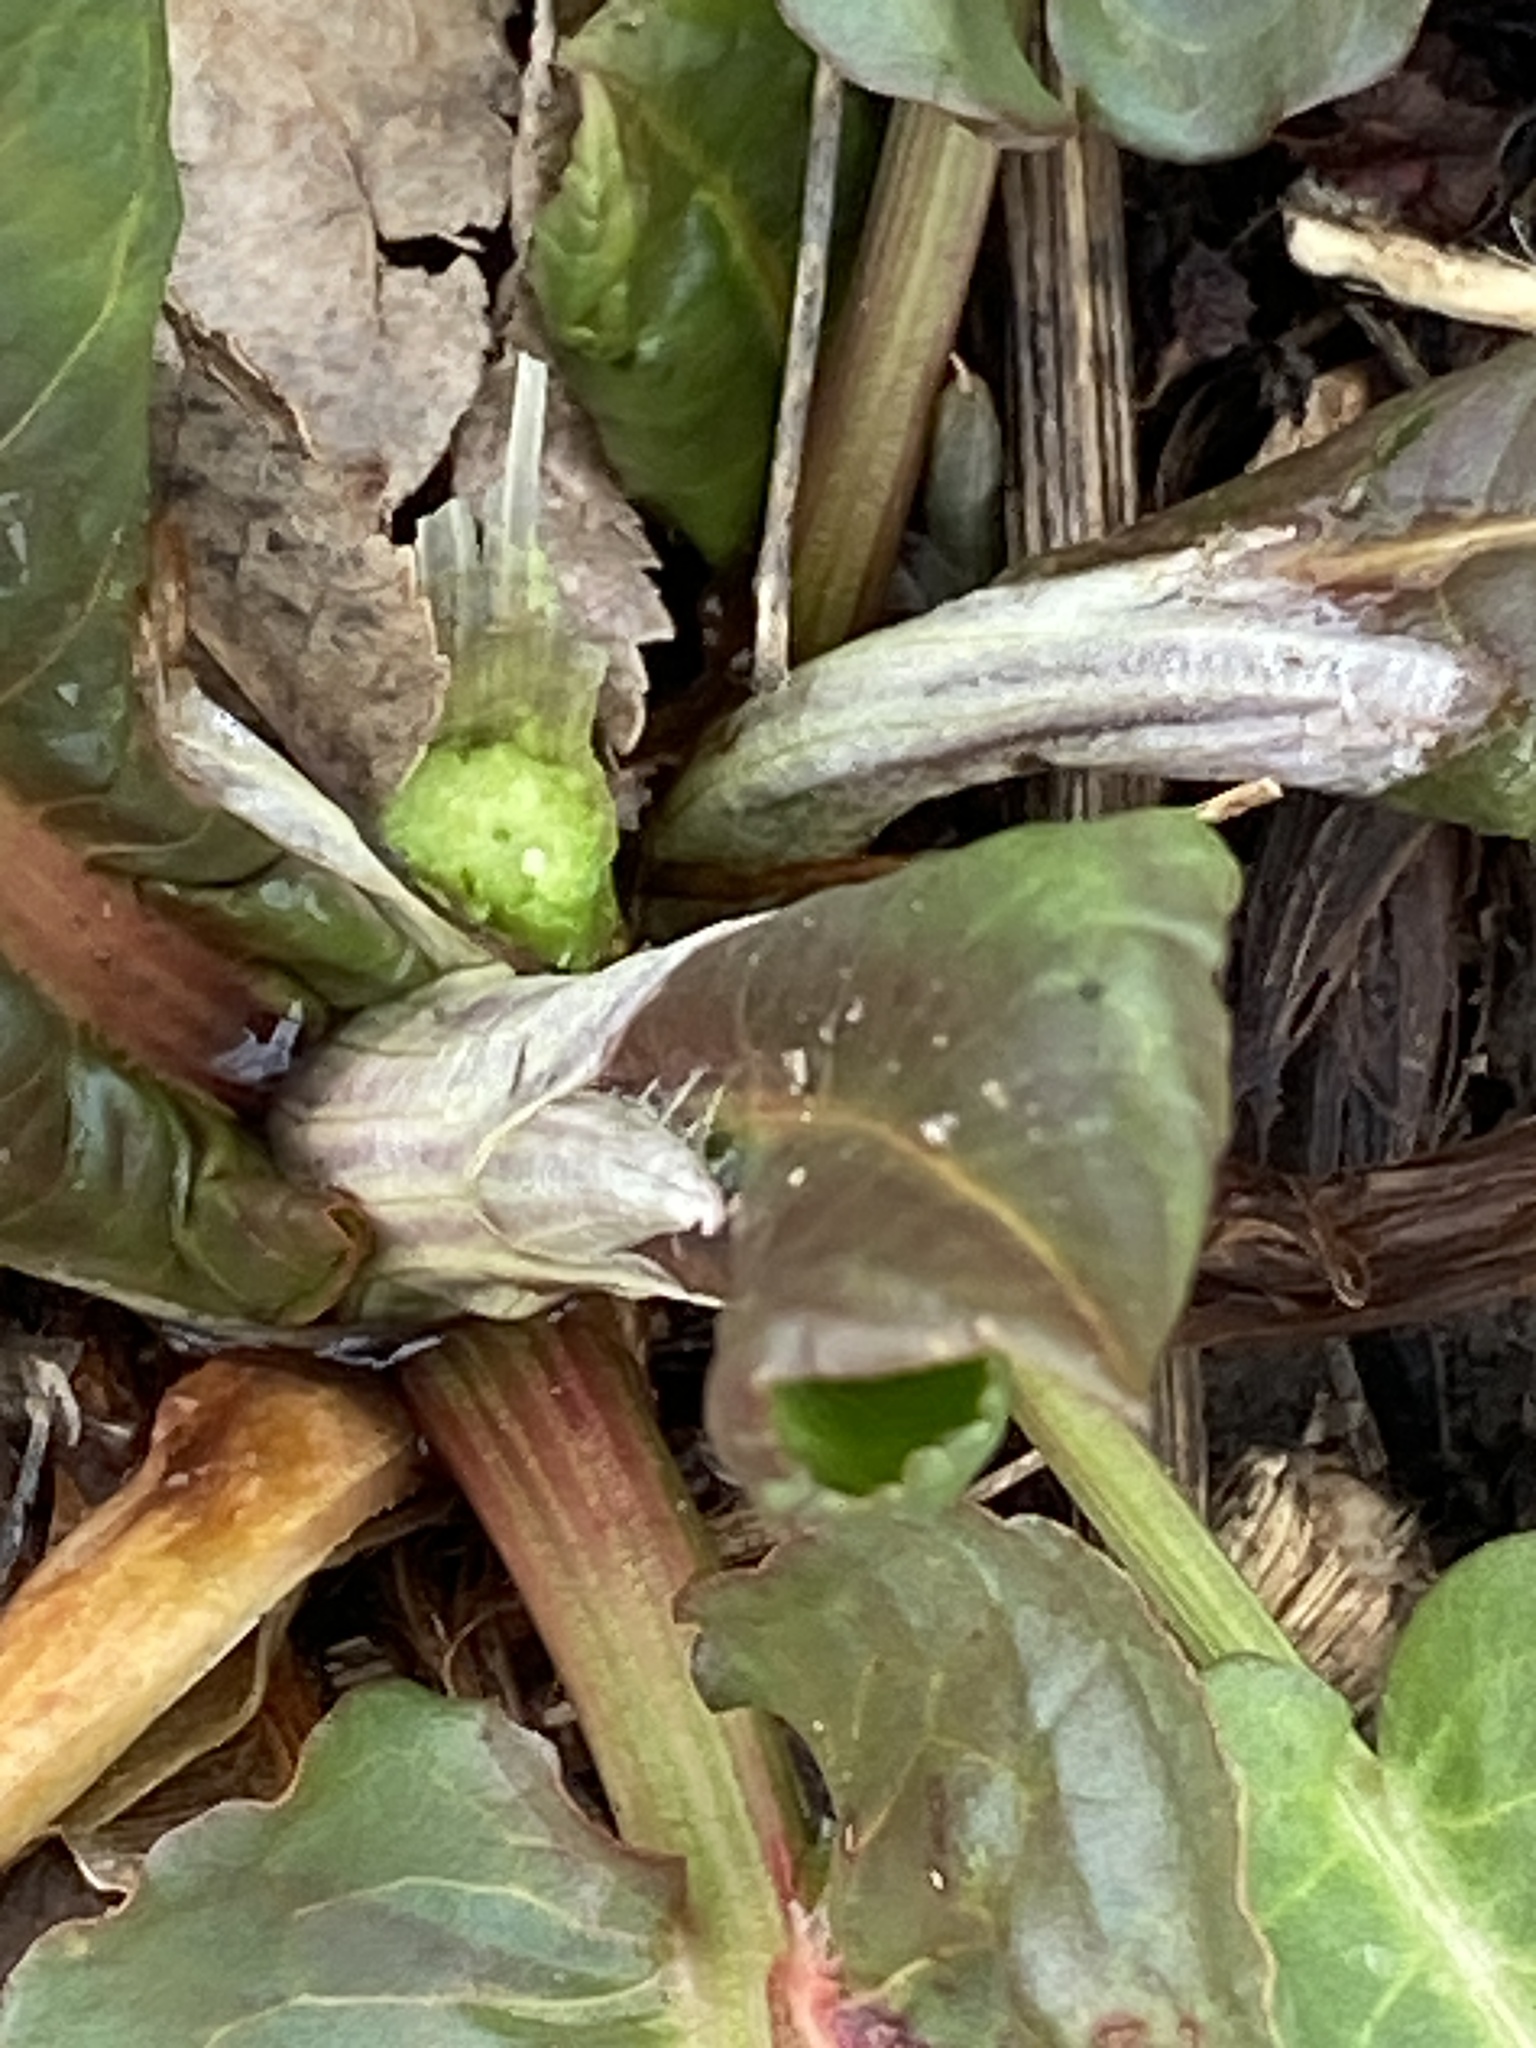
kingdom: Plantae
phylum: Tracheophyta
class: Magnoliopsida
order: Caryophyllales
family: Polygonaceae
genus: Rumex
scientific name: Rumex obtusifolius
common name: Bitter dock
